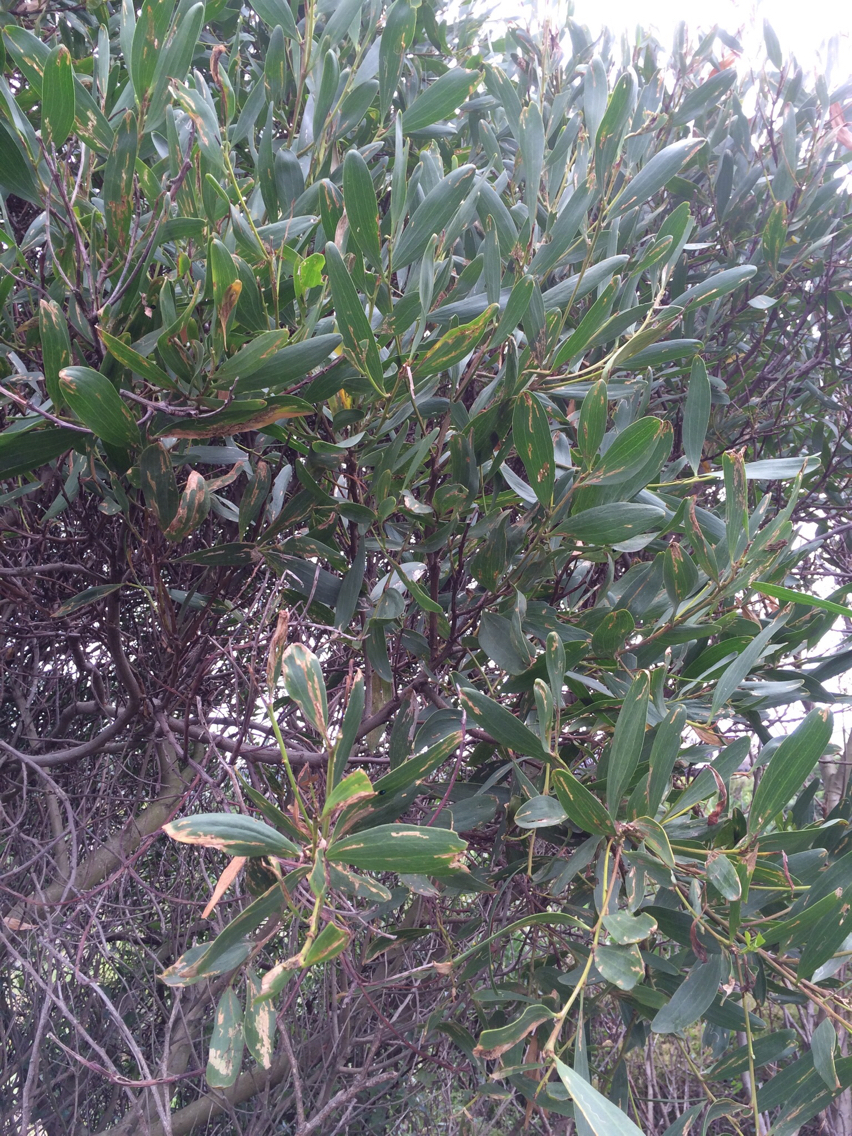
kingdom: Plantae
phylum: Tracheophyta
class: Magnoliopsida
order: Fabales
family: Fabaceae
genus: Acacia
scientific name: Acacia longifolia
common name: Sydney golden wattle
